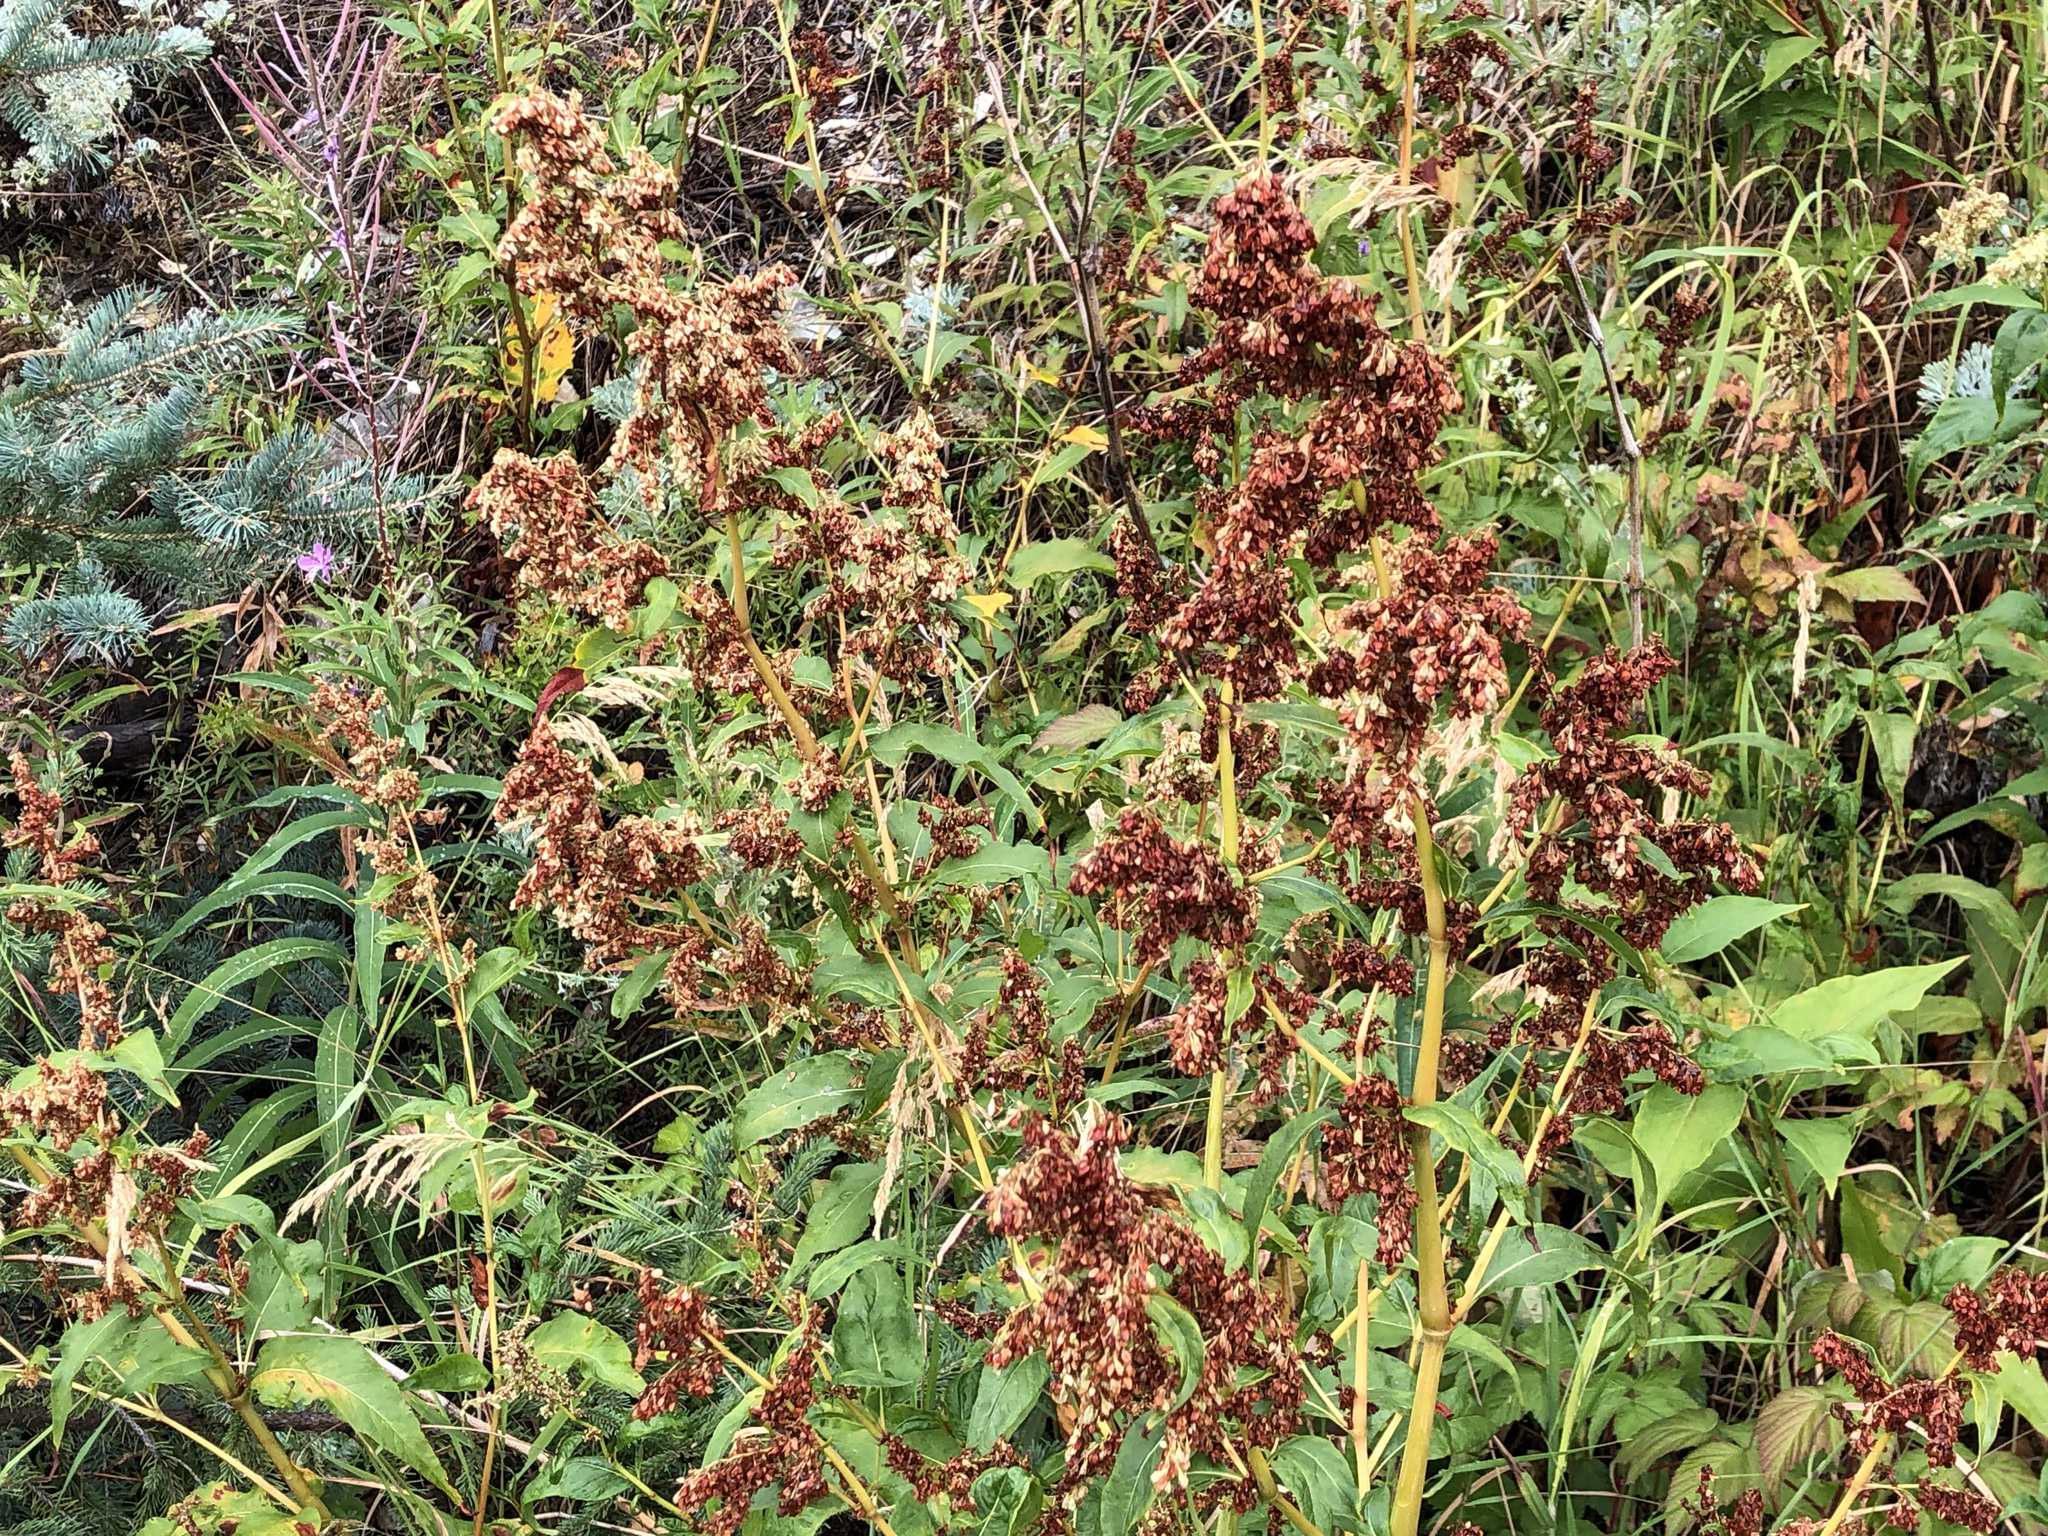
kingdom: Plantae
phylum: Tracheophyta
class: Magnoliopsida
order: Caryophyllales
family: Polygonaceae
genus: Koenigia
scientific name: Koenigia lapathifolia
